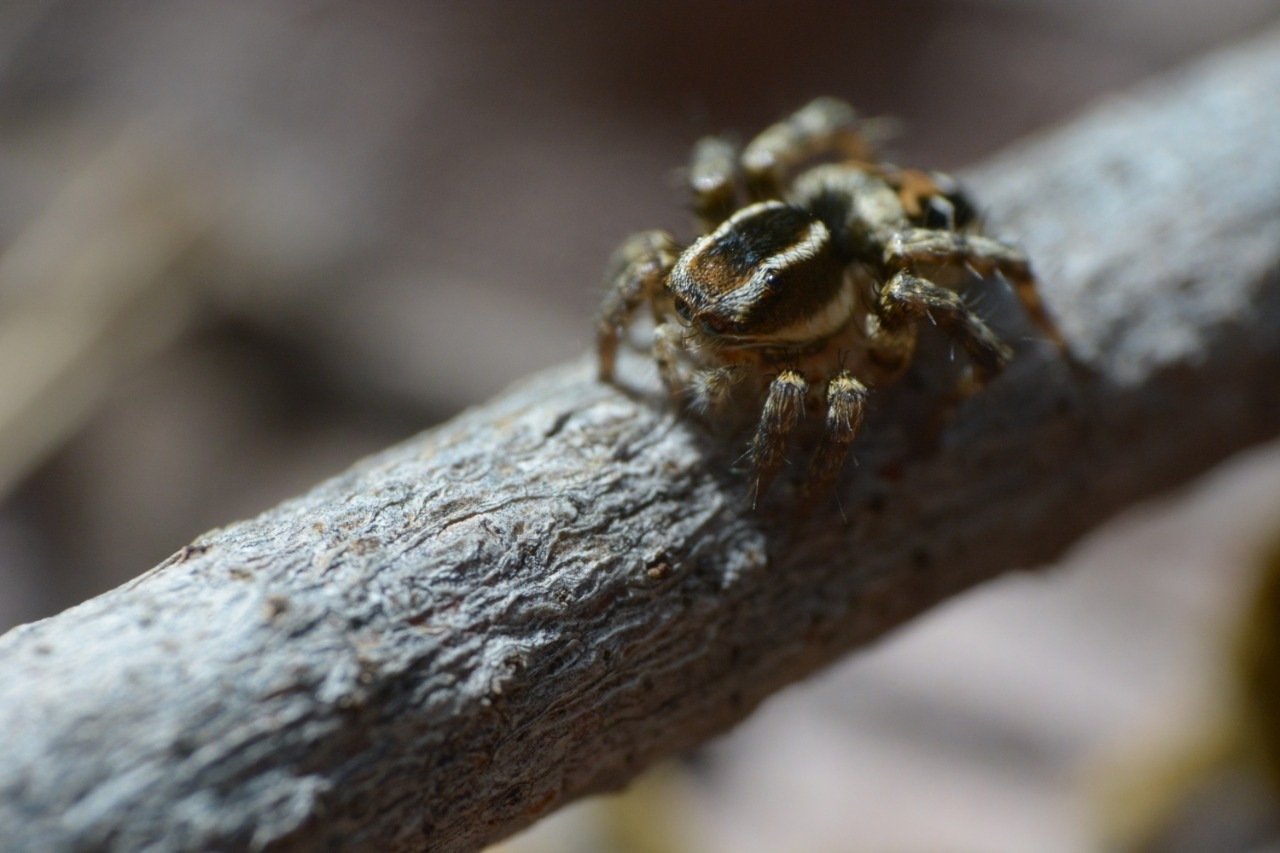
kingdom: Animalia
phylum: Arthropoda
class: Arachnida
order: Araneae
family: Salticidae
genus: Stenaelurillus
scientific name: Stenaelurillus guttiger
